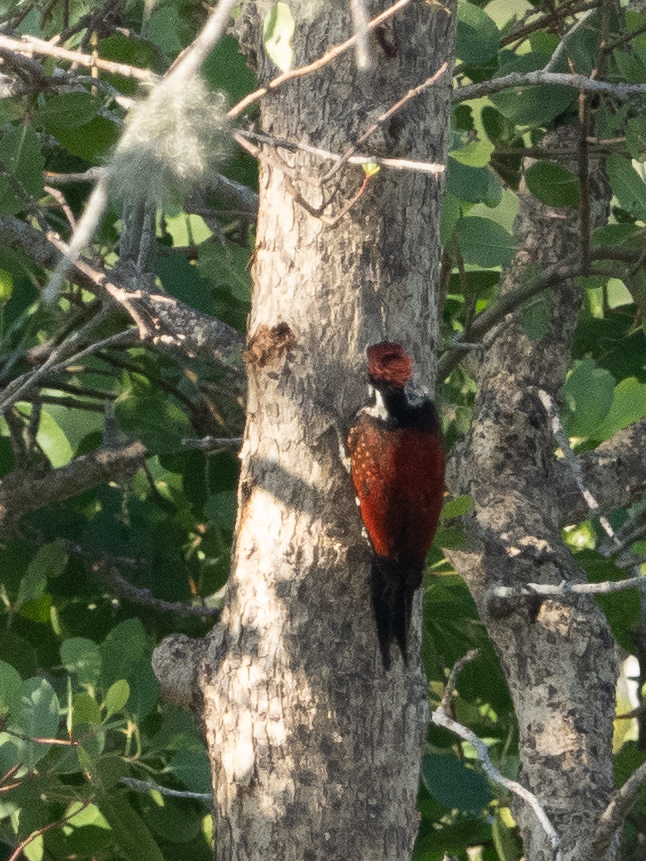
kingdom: Animalia
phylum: Chordata
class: Aves
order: Piciformes
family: Picidae
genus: Dinopium
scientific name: Dinopium psarodes
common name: Red-backed flameback
